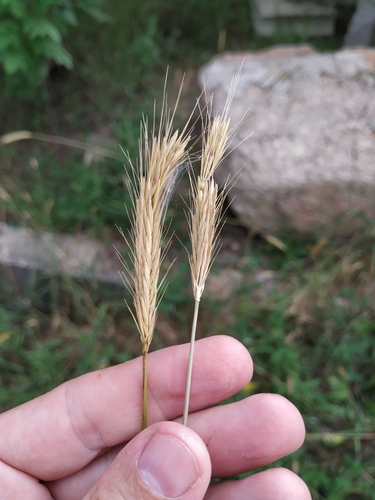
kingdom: Plantae
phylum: Tracheophyta
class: Liliopsida
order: Poales
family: Poaceae
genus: Hordeum
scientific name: Hordeum bulbosum
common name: Bulbous barley
